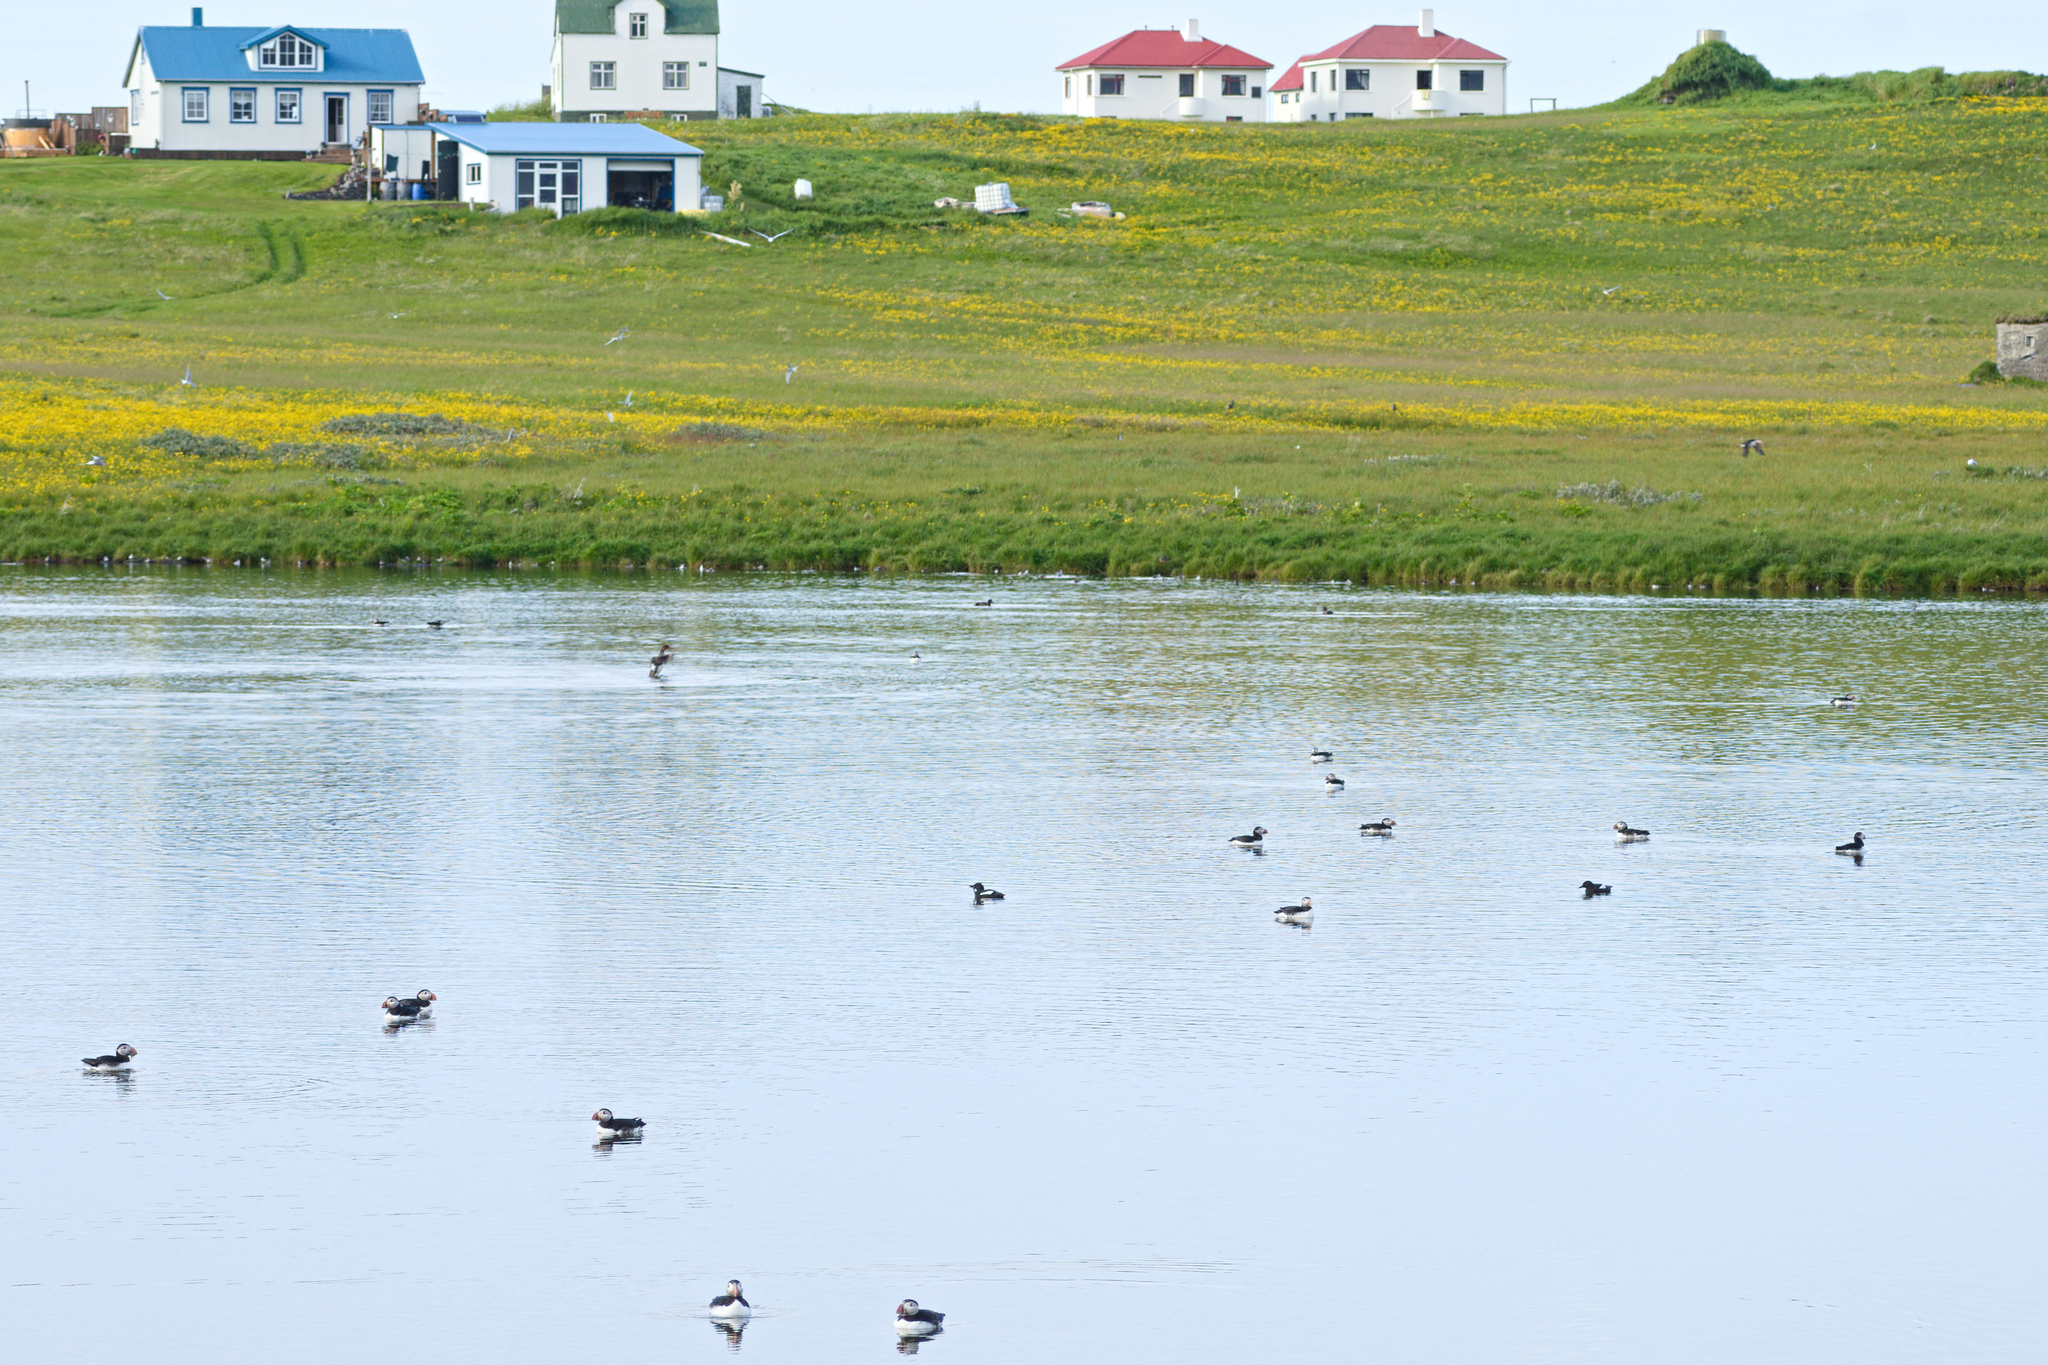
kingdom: Animalia
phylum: Chordata
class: Aves
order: Charadriiformes
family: Alcidae
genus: Fratercula
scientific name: Fratercula arctica
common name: Atlantic puffin
